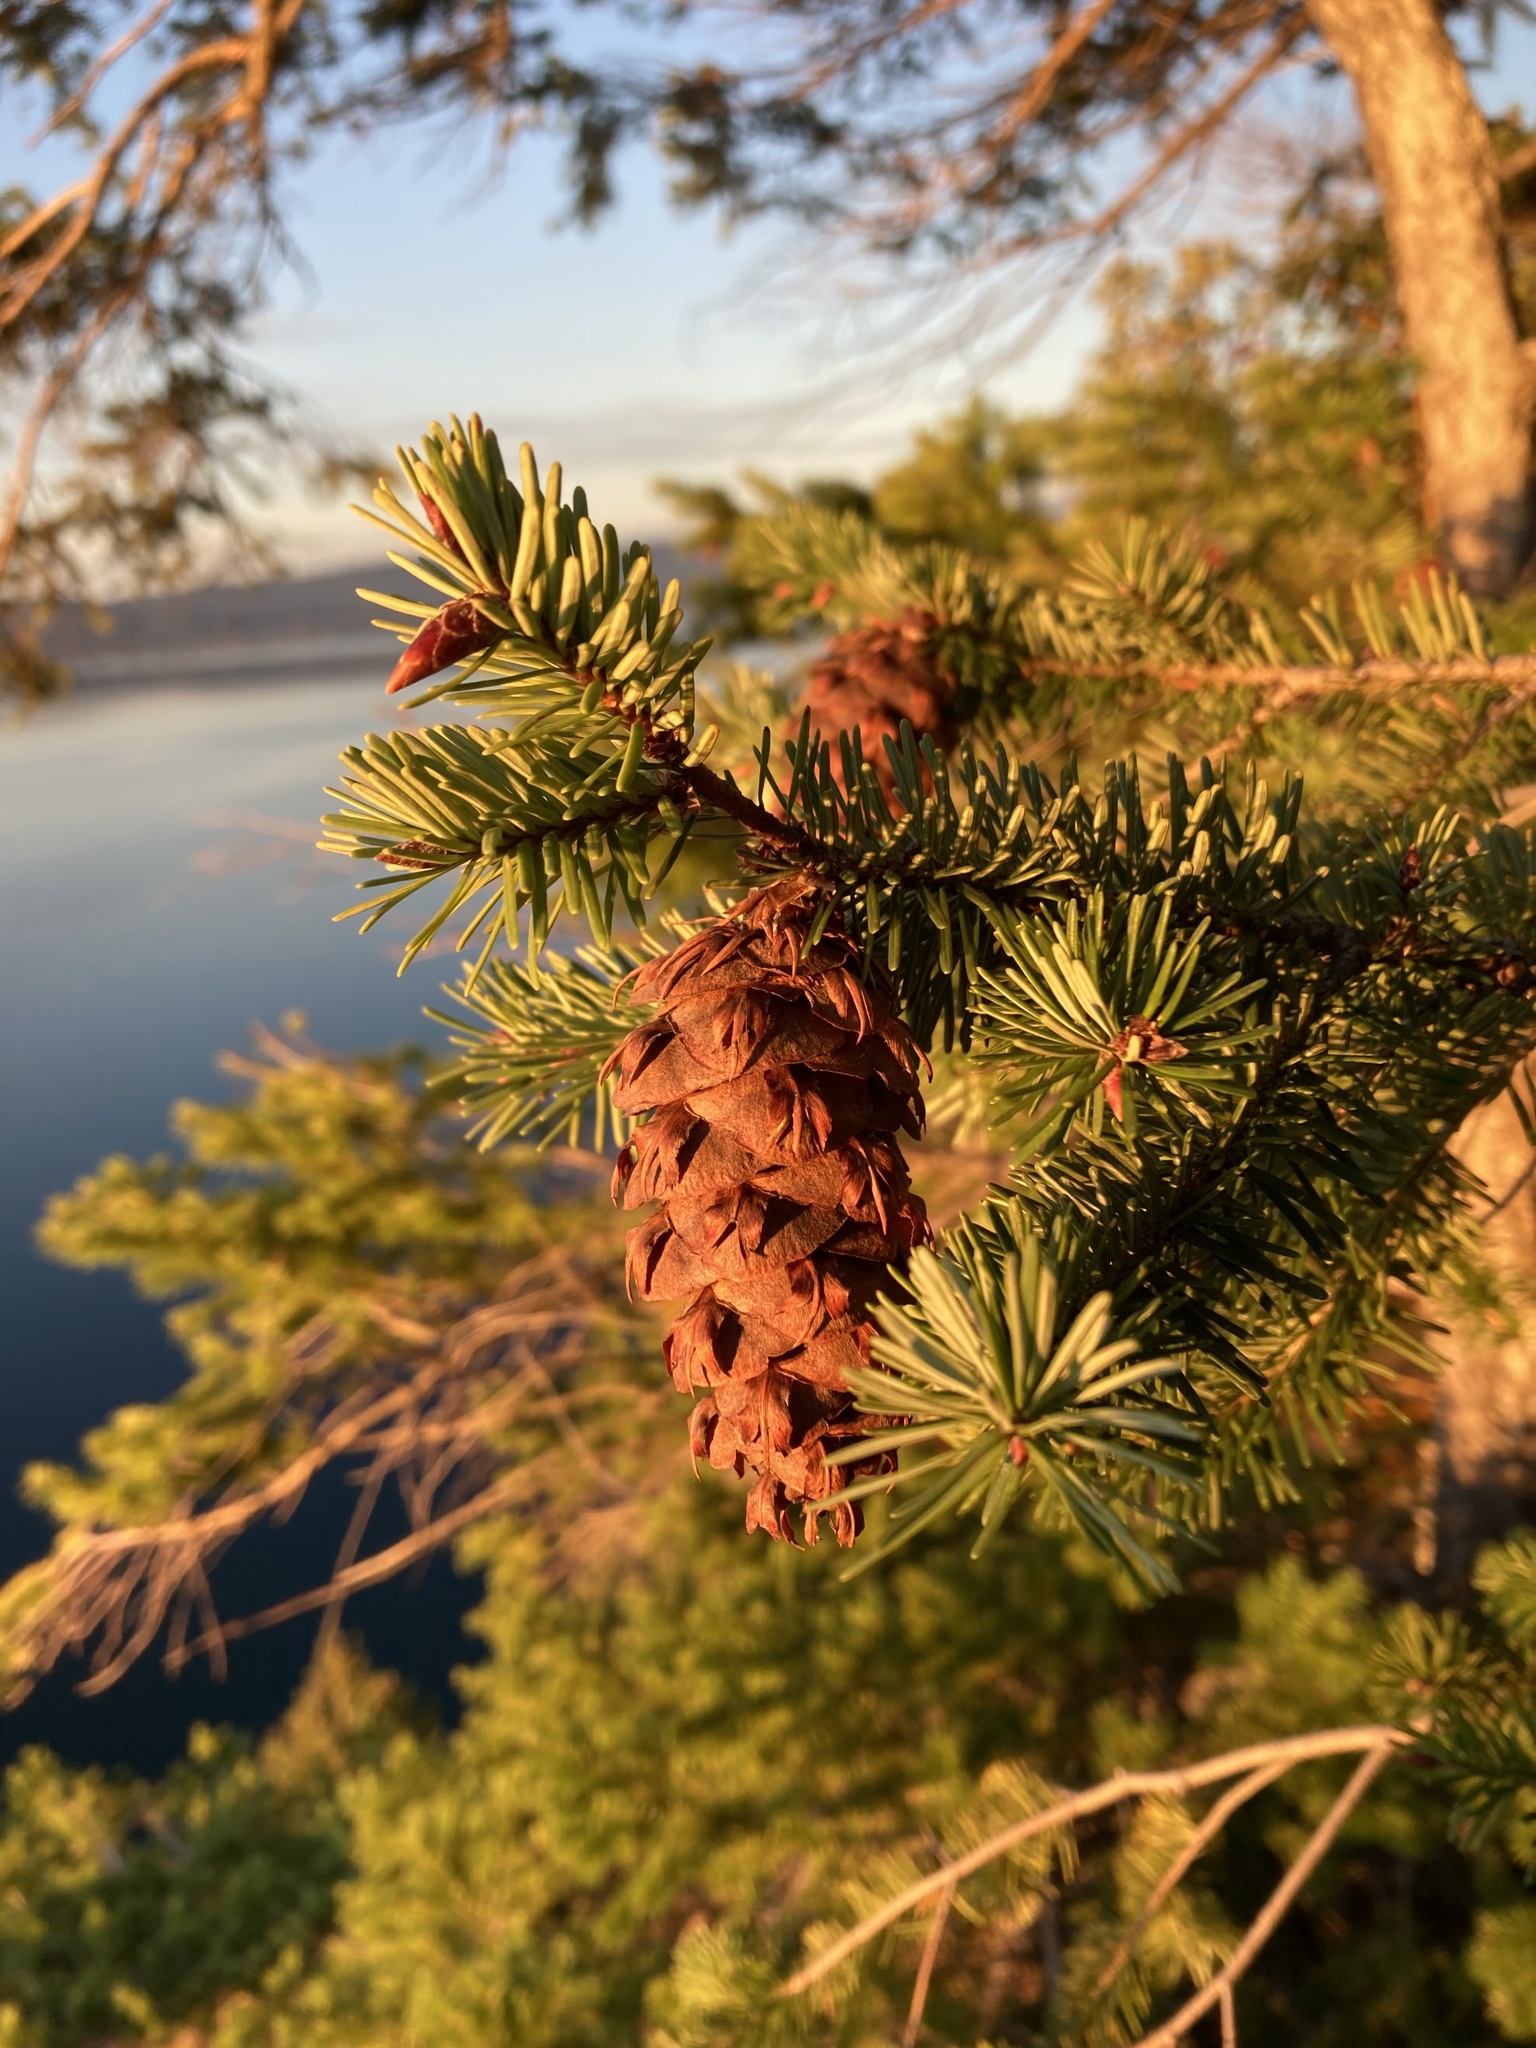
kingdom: Plantae
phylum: Tracheophyta
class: Pinopsida
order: Pinales
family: Pinaceae
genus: Pseudotsuga
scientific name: Pseudotsuga menziesii
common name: Douglas fir
